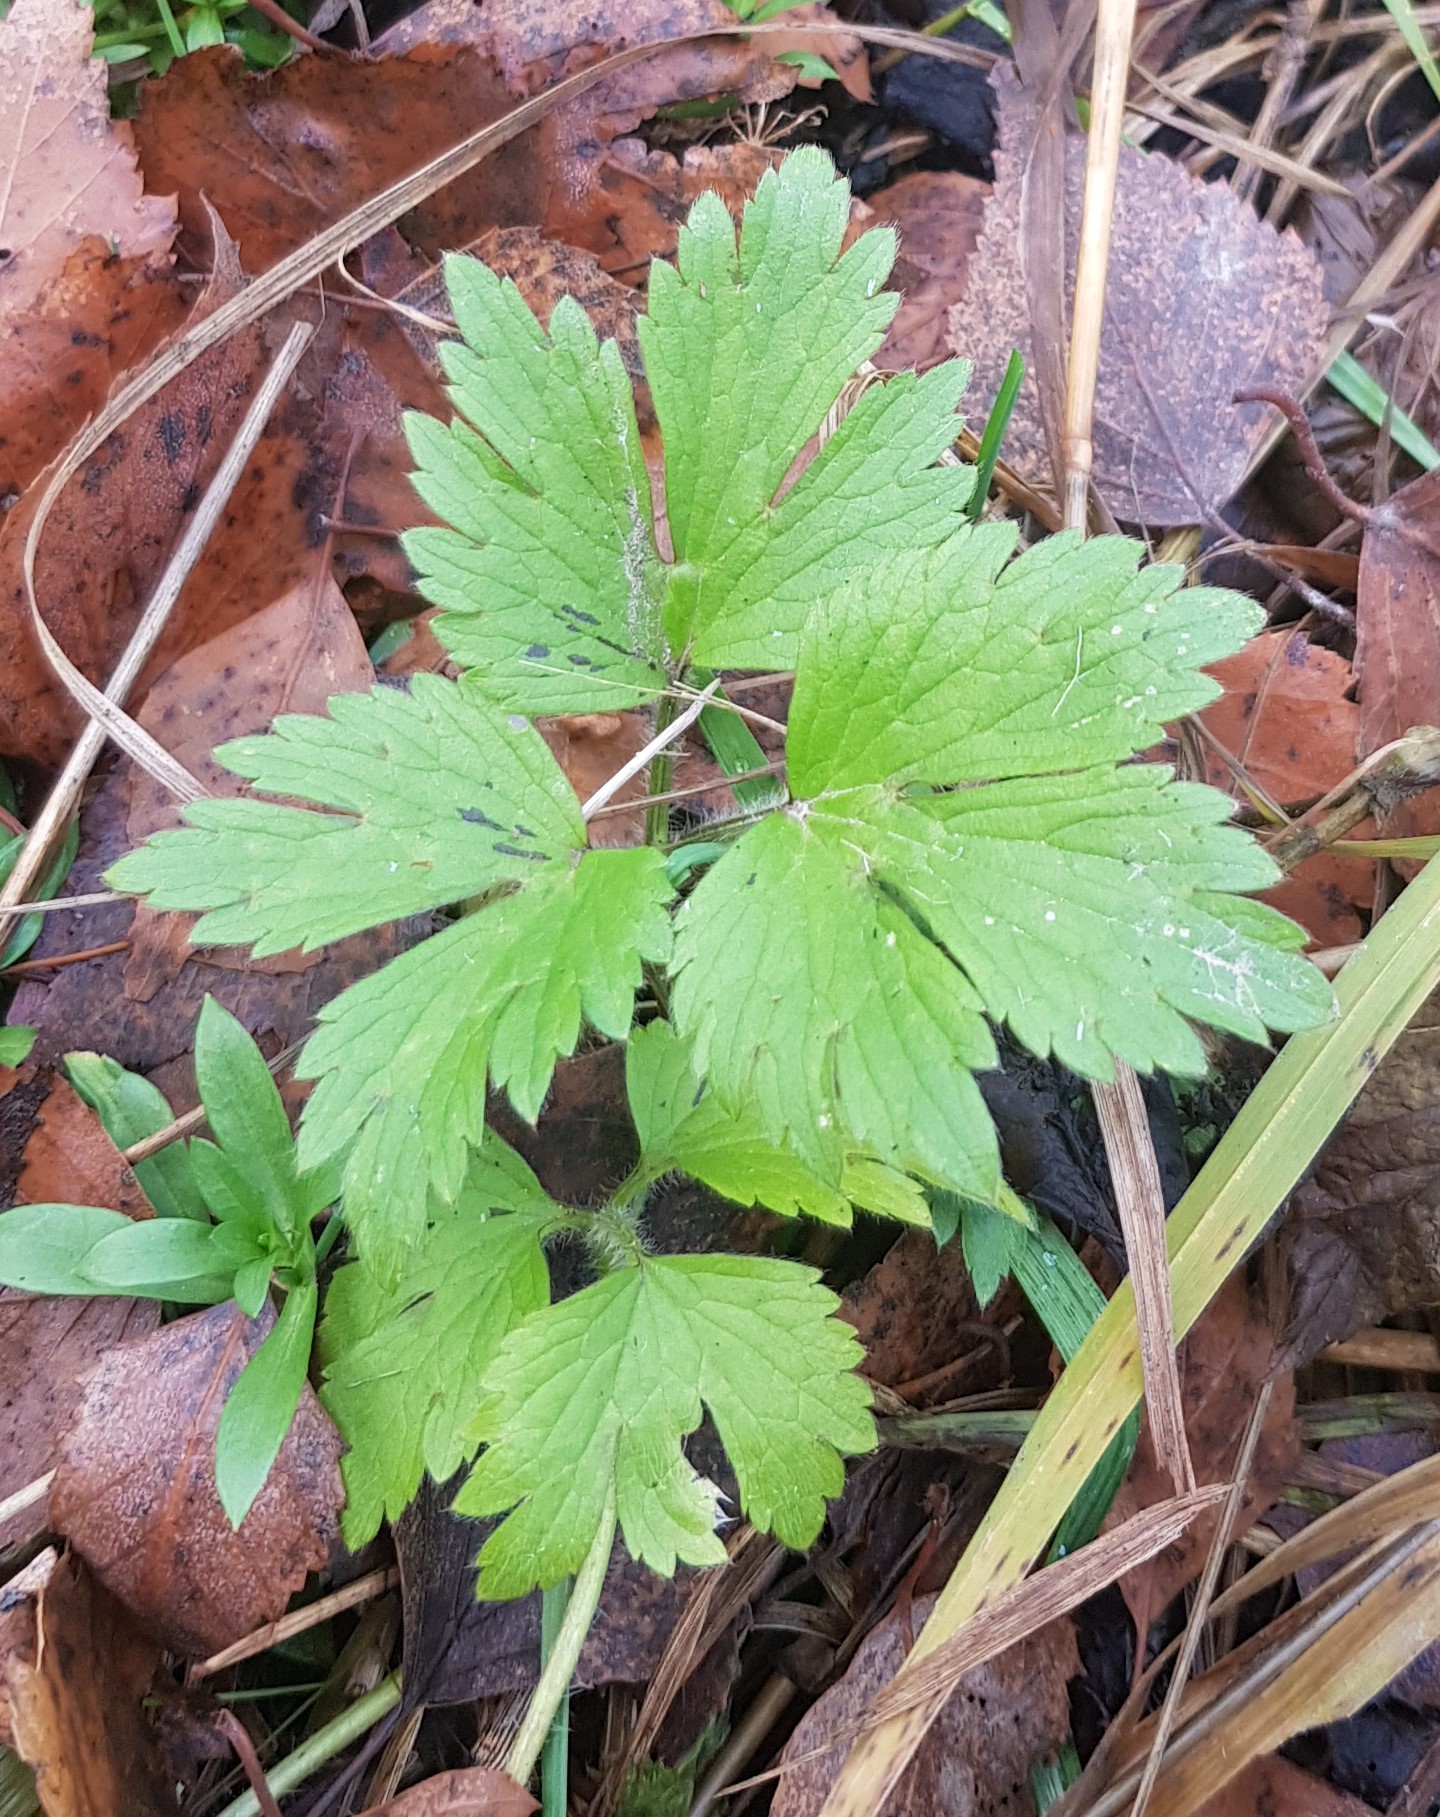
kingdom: Plantae
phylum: Tracheophyta
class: Magnoliopsida
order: Ranunculales
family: Ranunculaceae
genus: Ranunculus
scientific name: Ranunculus repens
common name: Creeping buttercup
